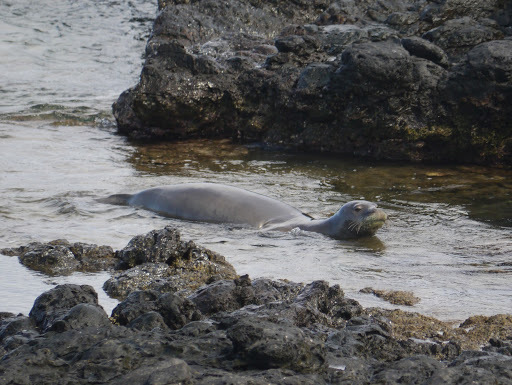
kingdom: Animalia
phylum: Chordata
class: Mammalia
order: Carnivora
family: Phocidae
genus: Neomonachus
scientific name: Neomonachus schauinslandi
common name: Hawaiian monk seal
